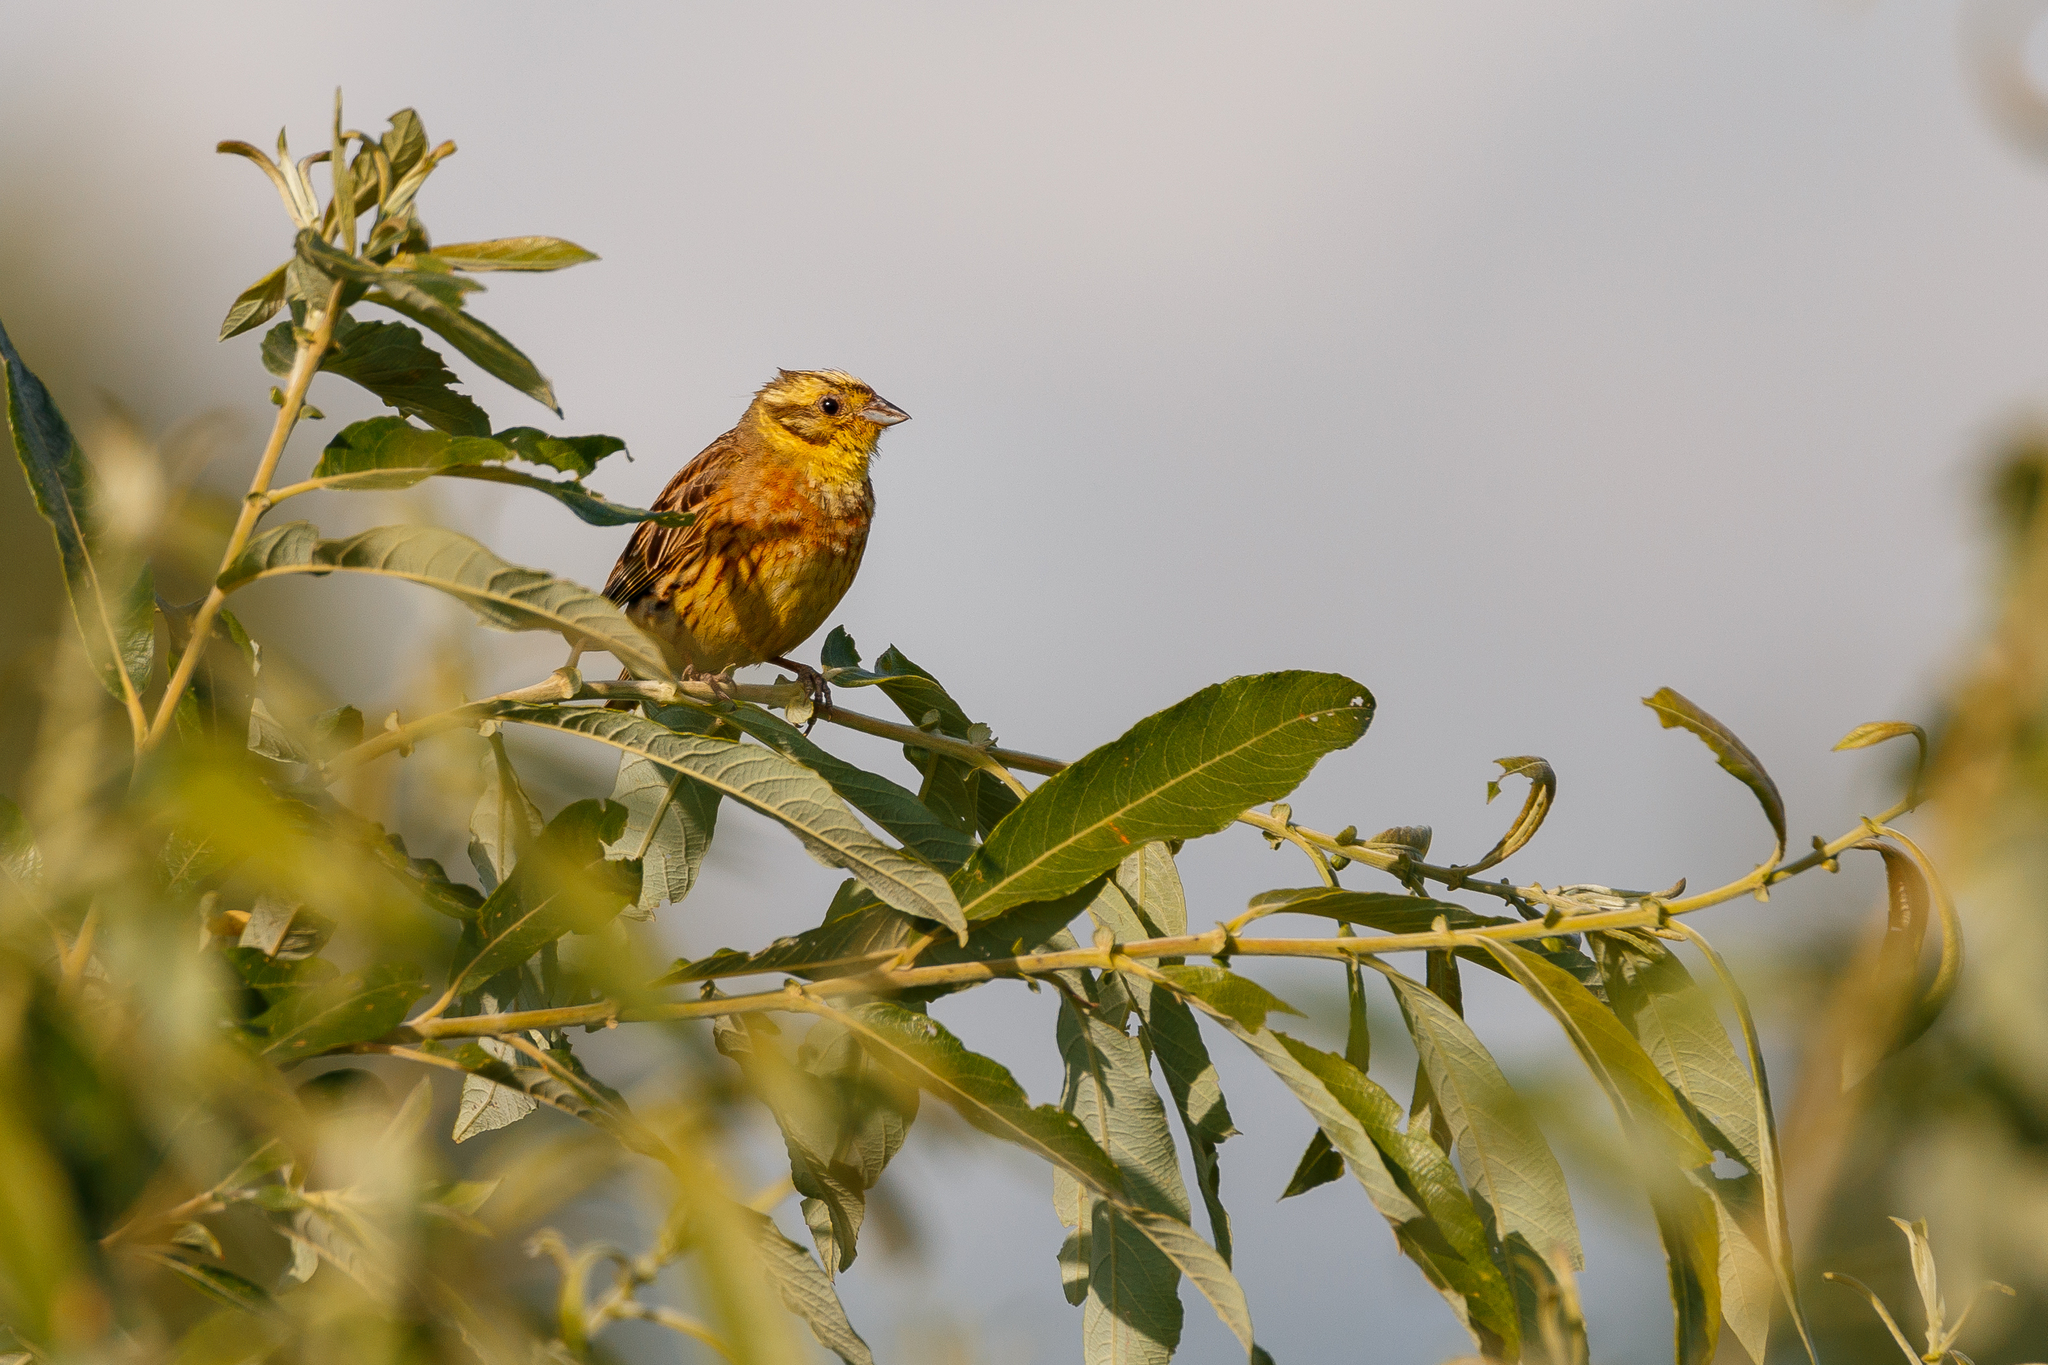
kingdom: Animalia
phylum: Chordata
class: Aves
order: Passeriformes
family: Emberizidae
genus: Emberiza
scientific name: Emberiza citrinella
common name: Yellowhammer
